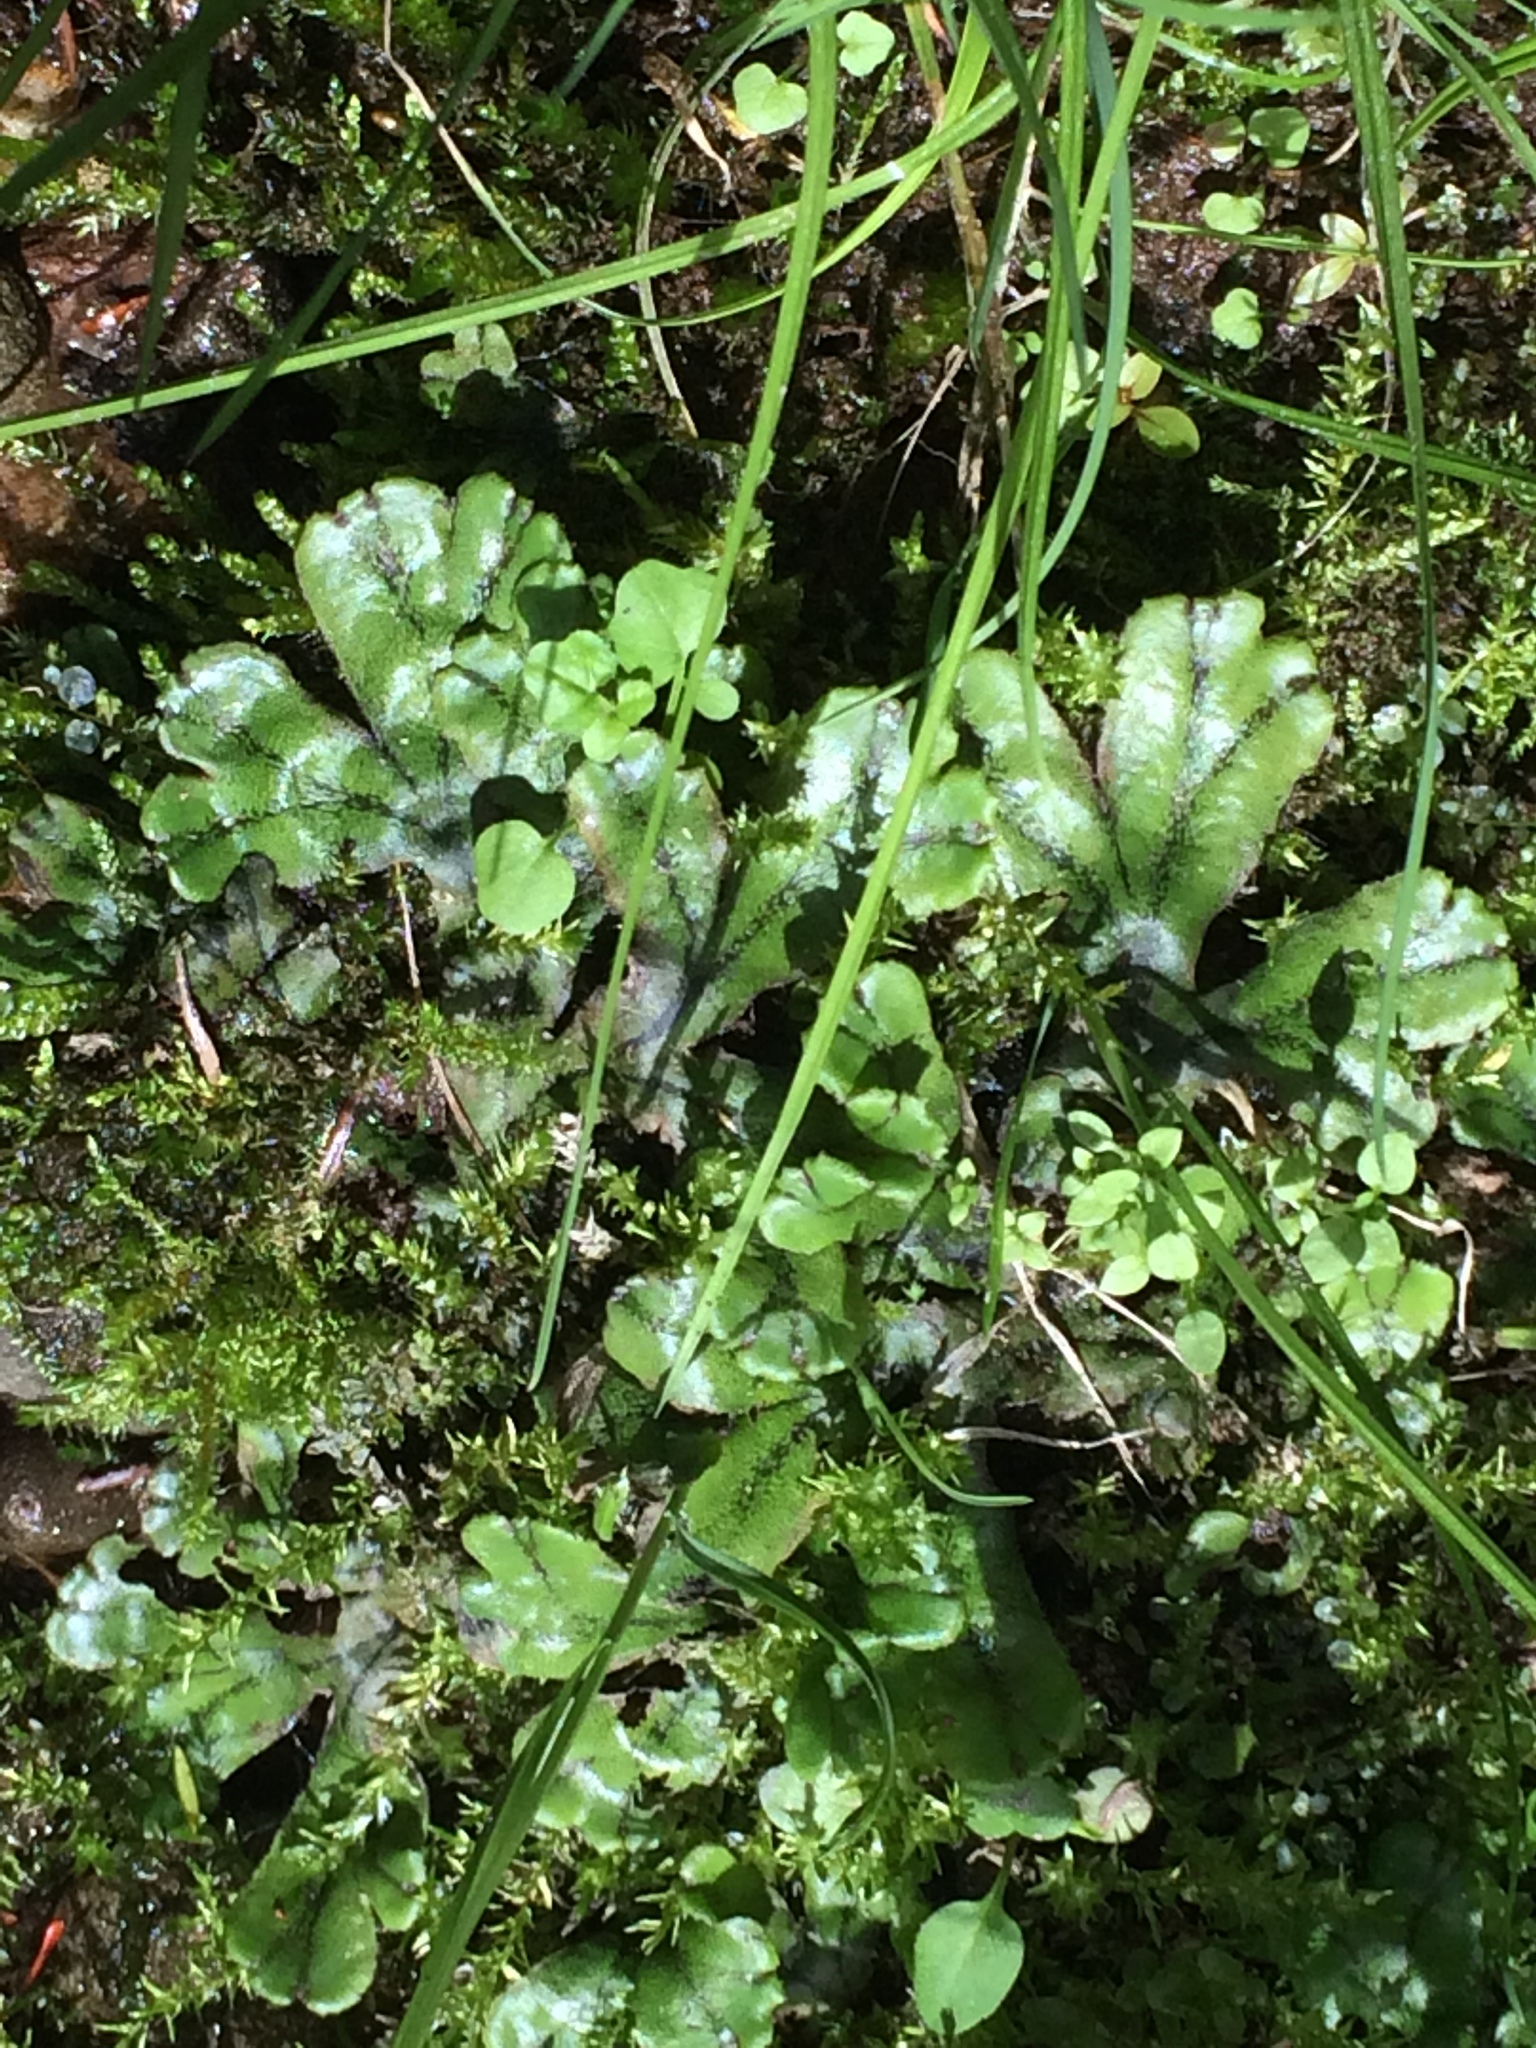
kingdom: Plantae
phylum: Marchantiophyta
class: Marchantiopsida
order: Marchantiales
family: Marchantiaceae
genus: Marchantia
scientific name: Marchantia polymorpha
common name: Common liverwort
